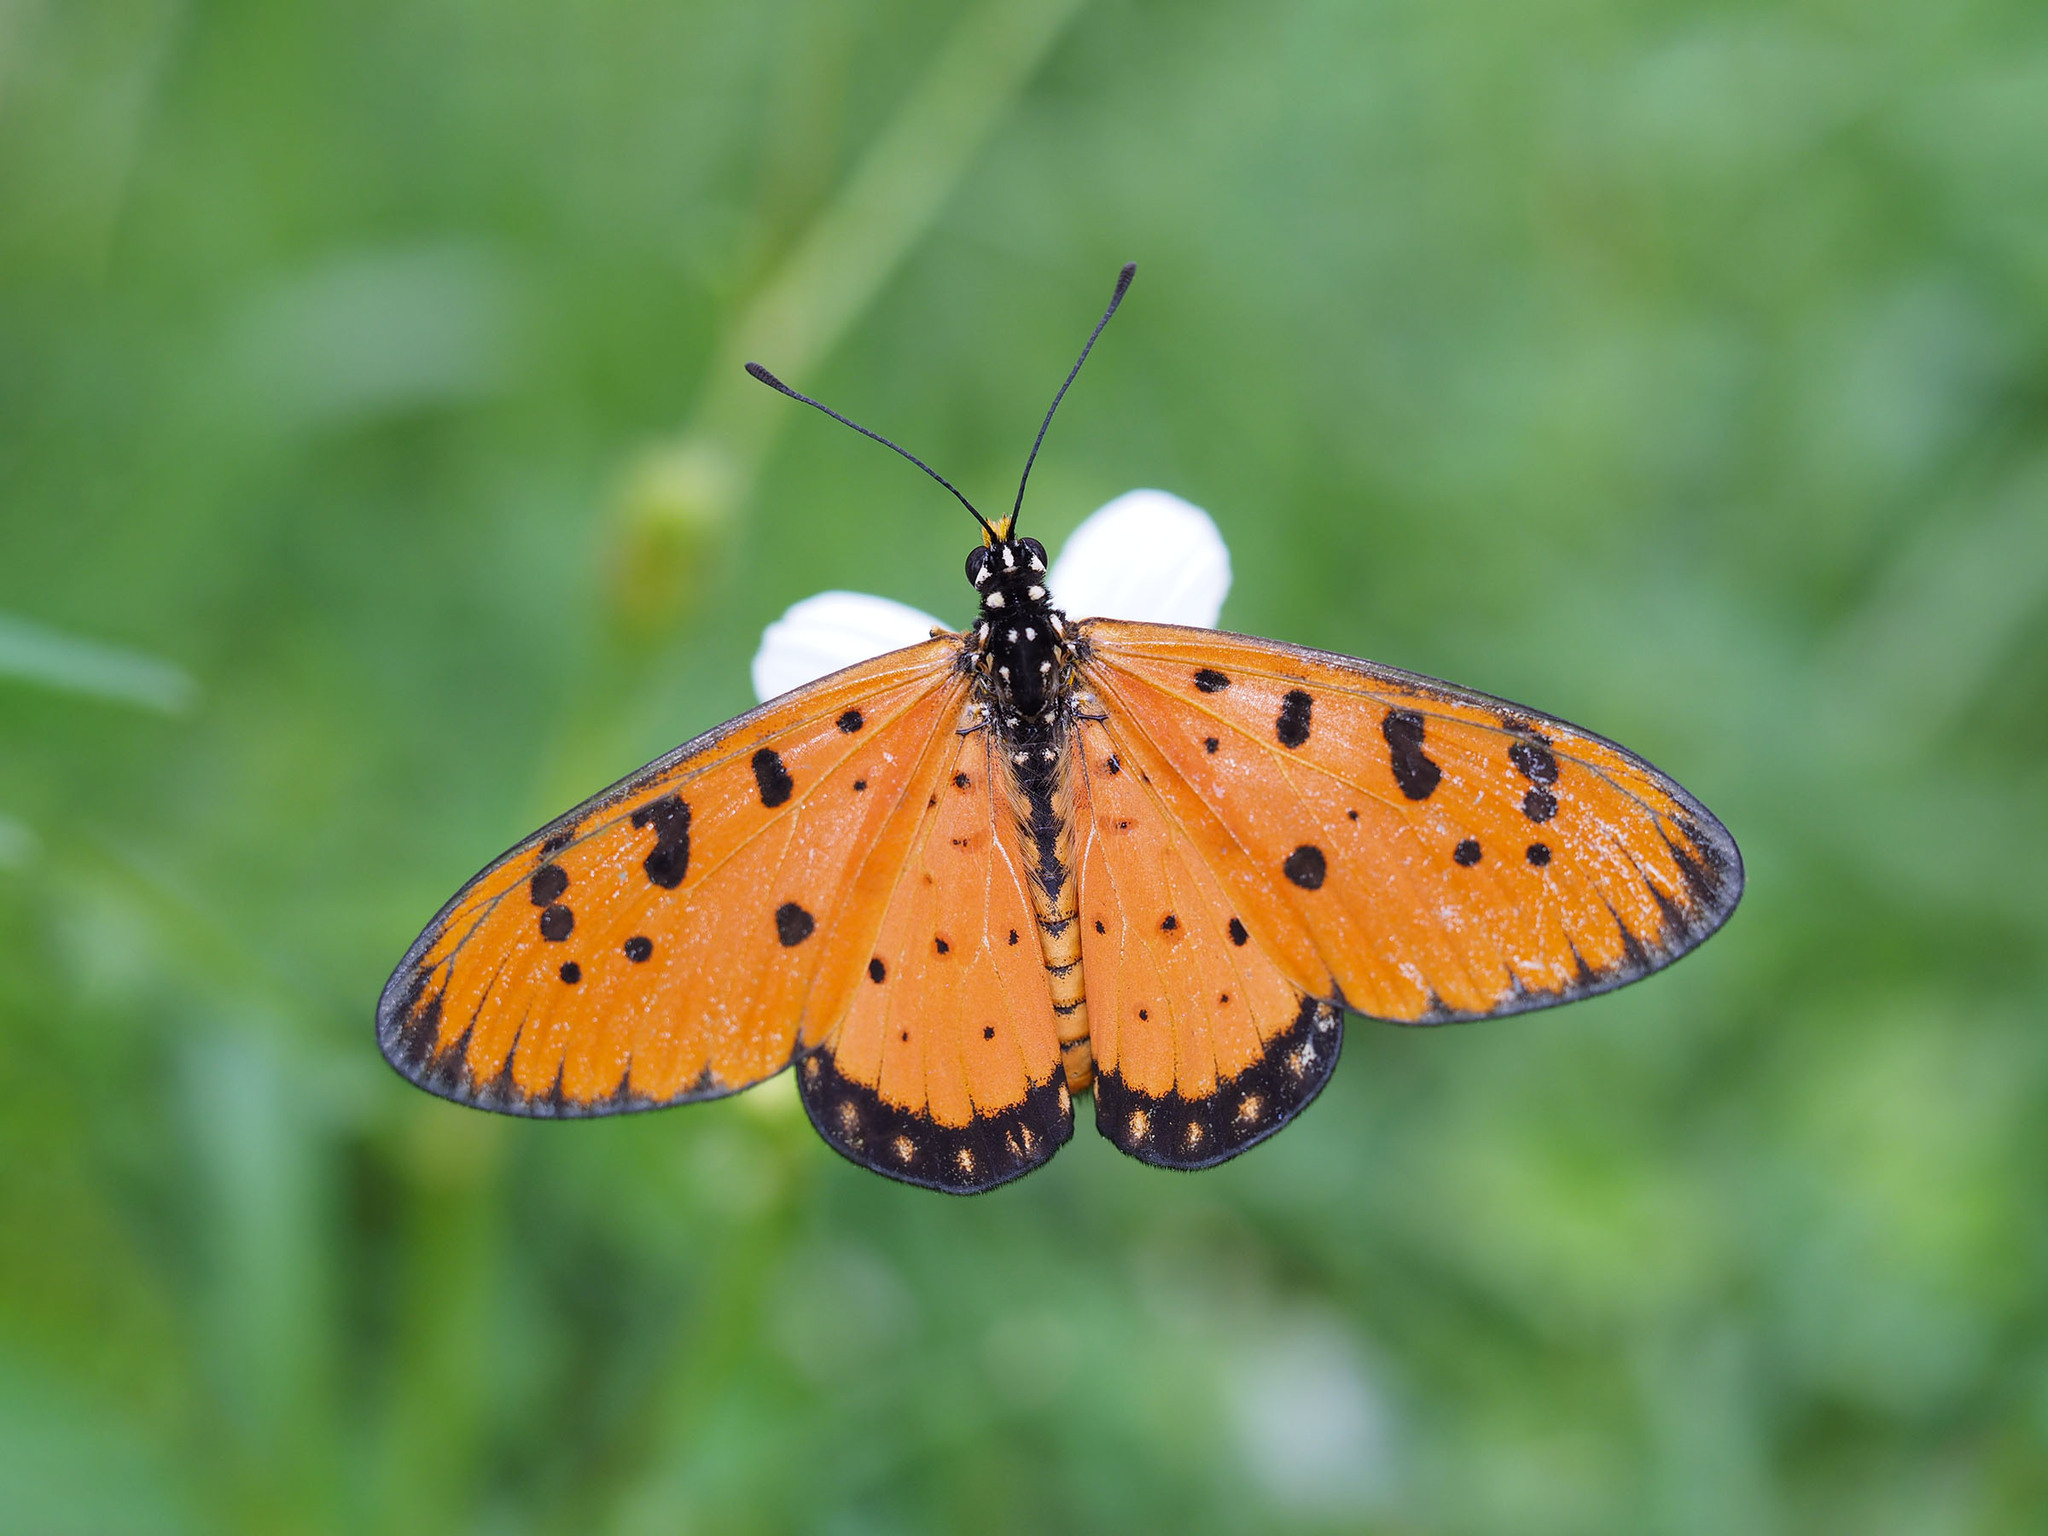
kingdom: Animalia
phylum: Arthropoda
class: Insecta
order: Lepidoptera
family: Nymphalidae
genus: Acraea
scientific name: Acraea terpsicore
